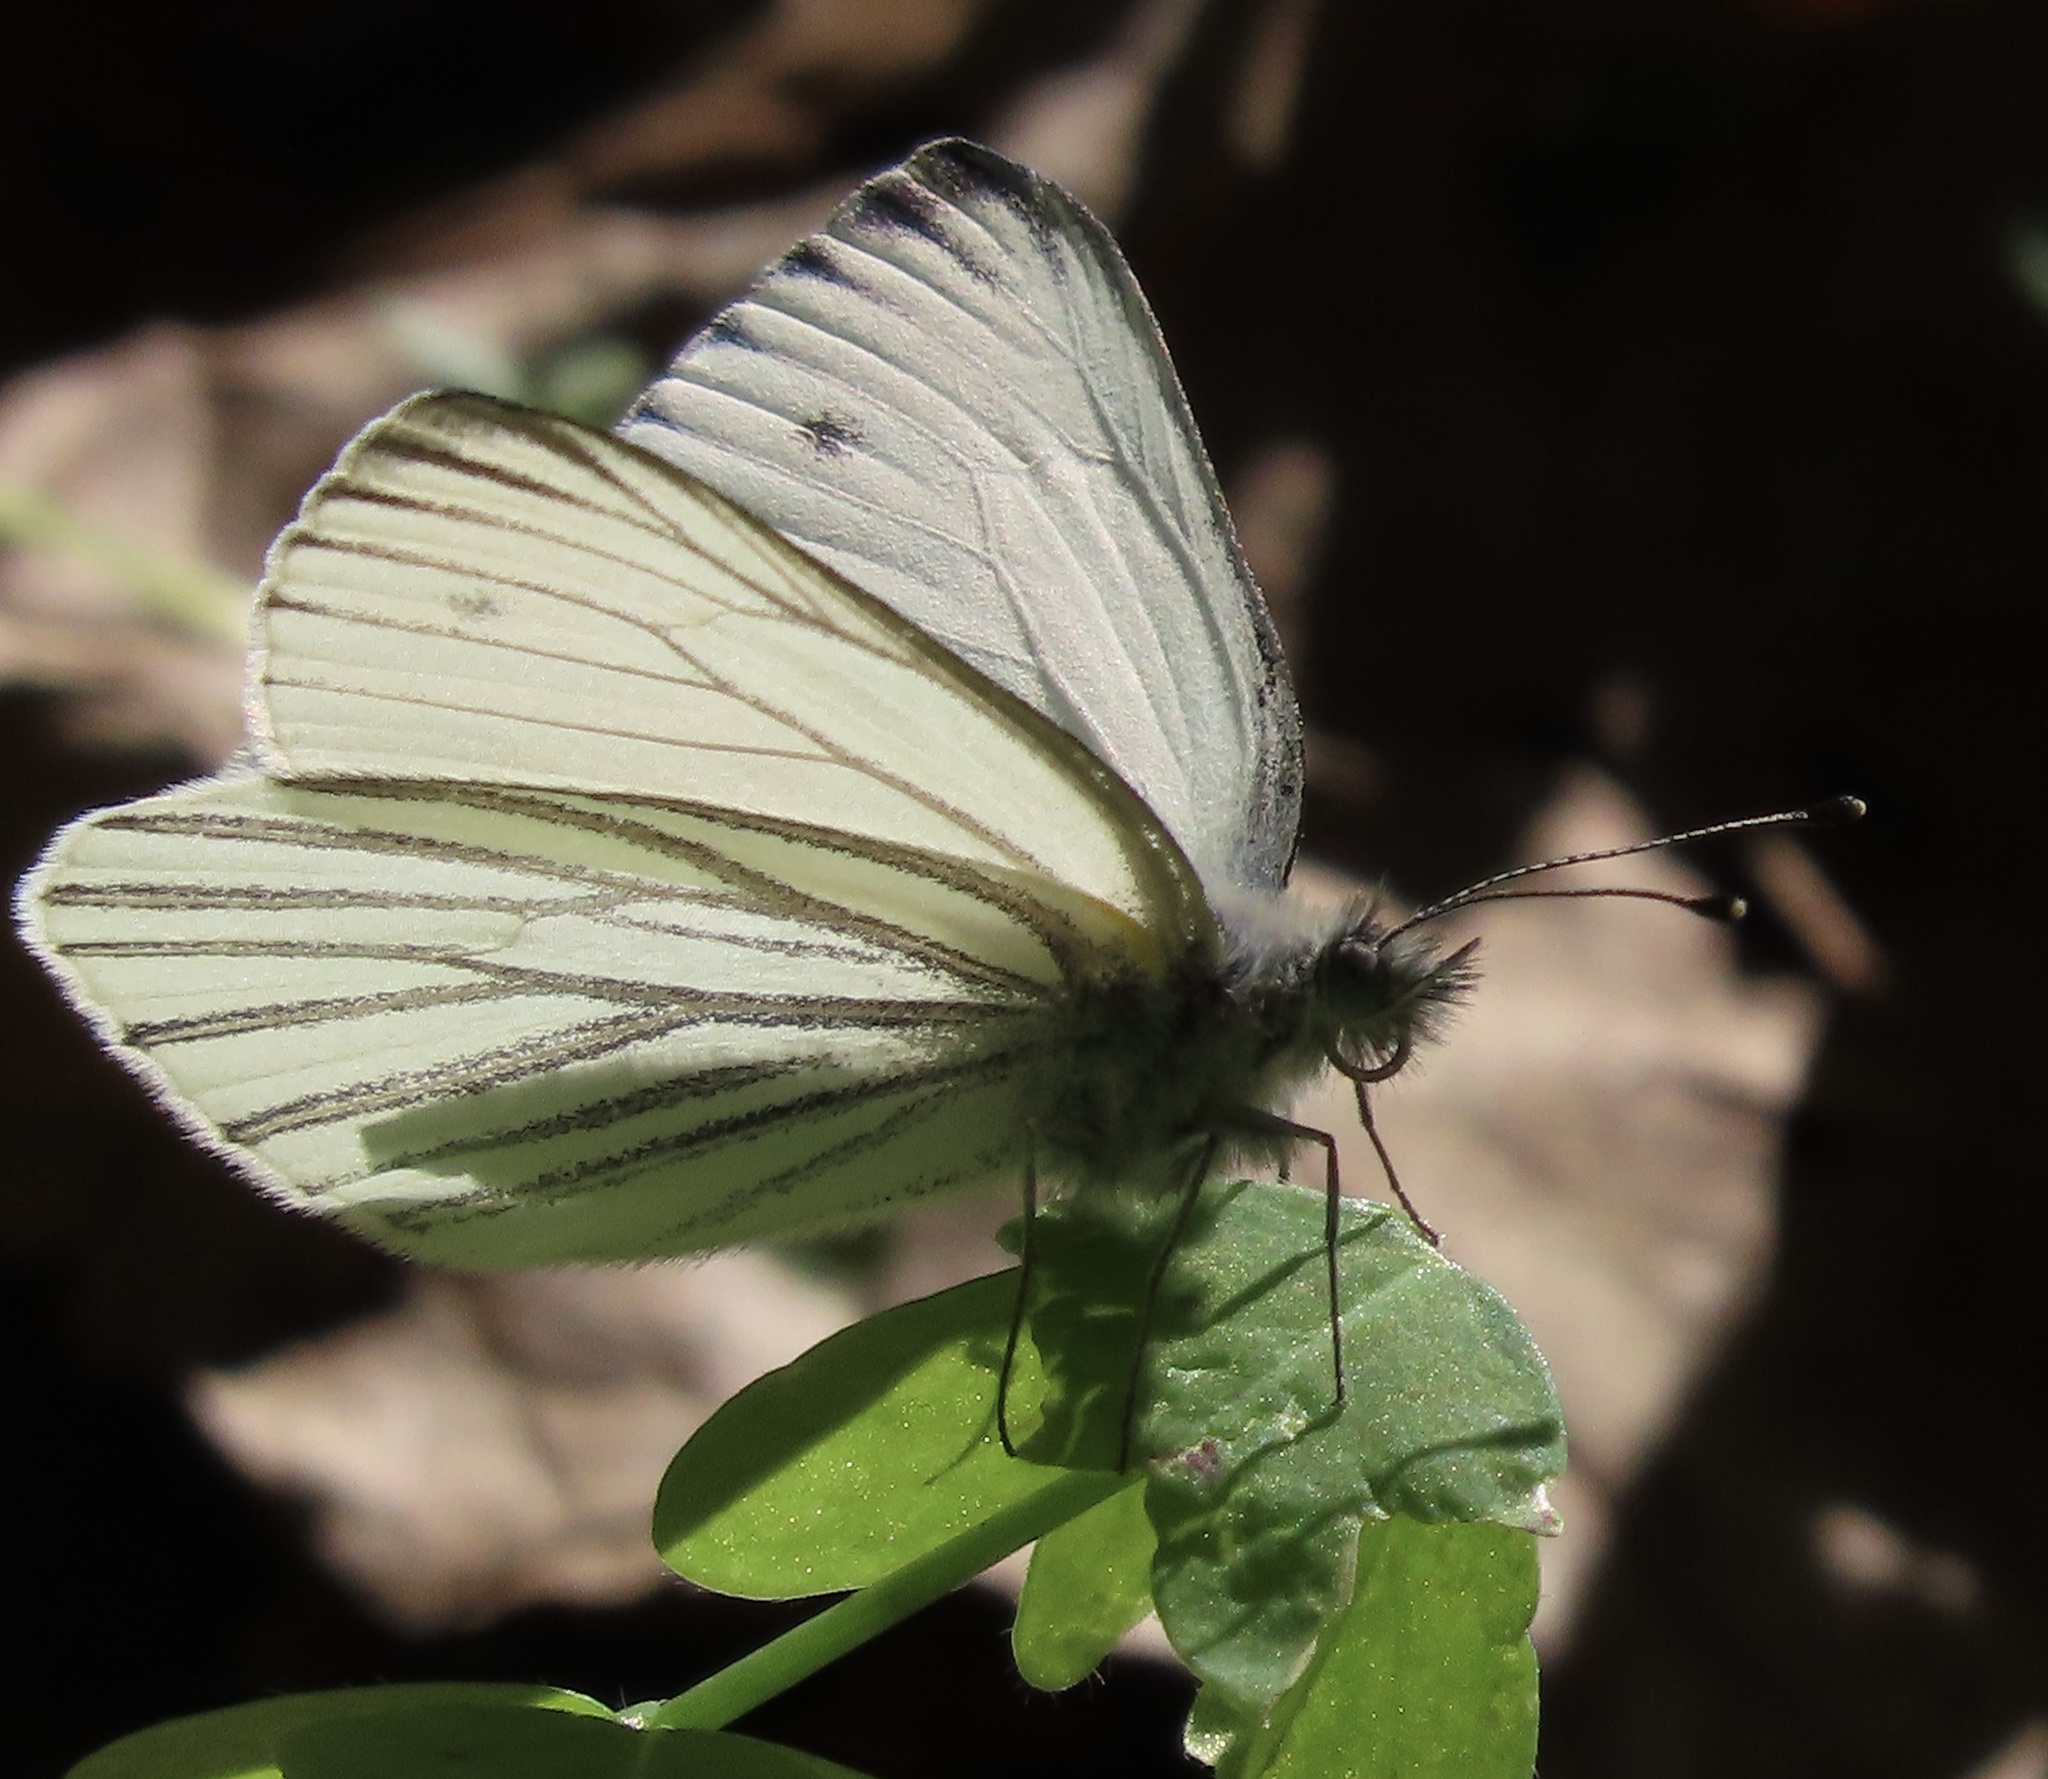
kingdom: Animalia
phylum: Arthropoda
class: Insecta
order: Lepidoptera
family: Pieridae
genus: Pieris
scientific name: Pieris marginalis
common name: Margined white
